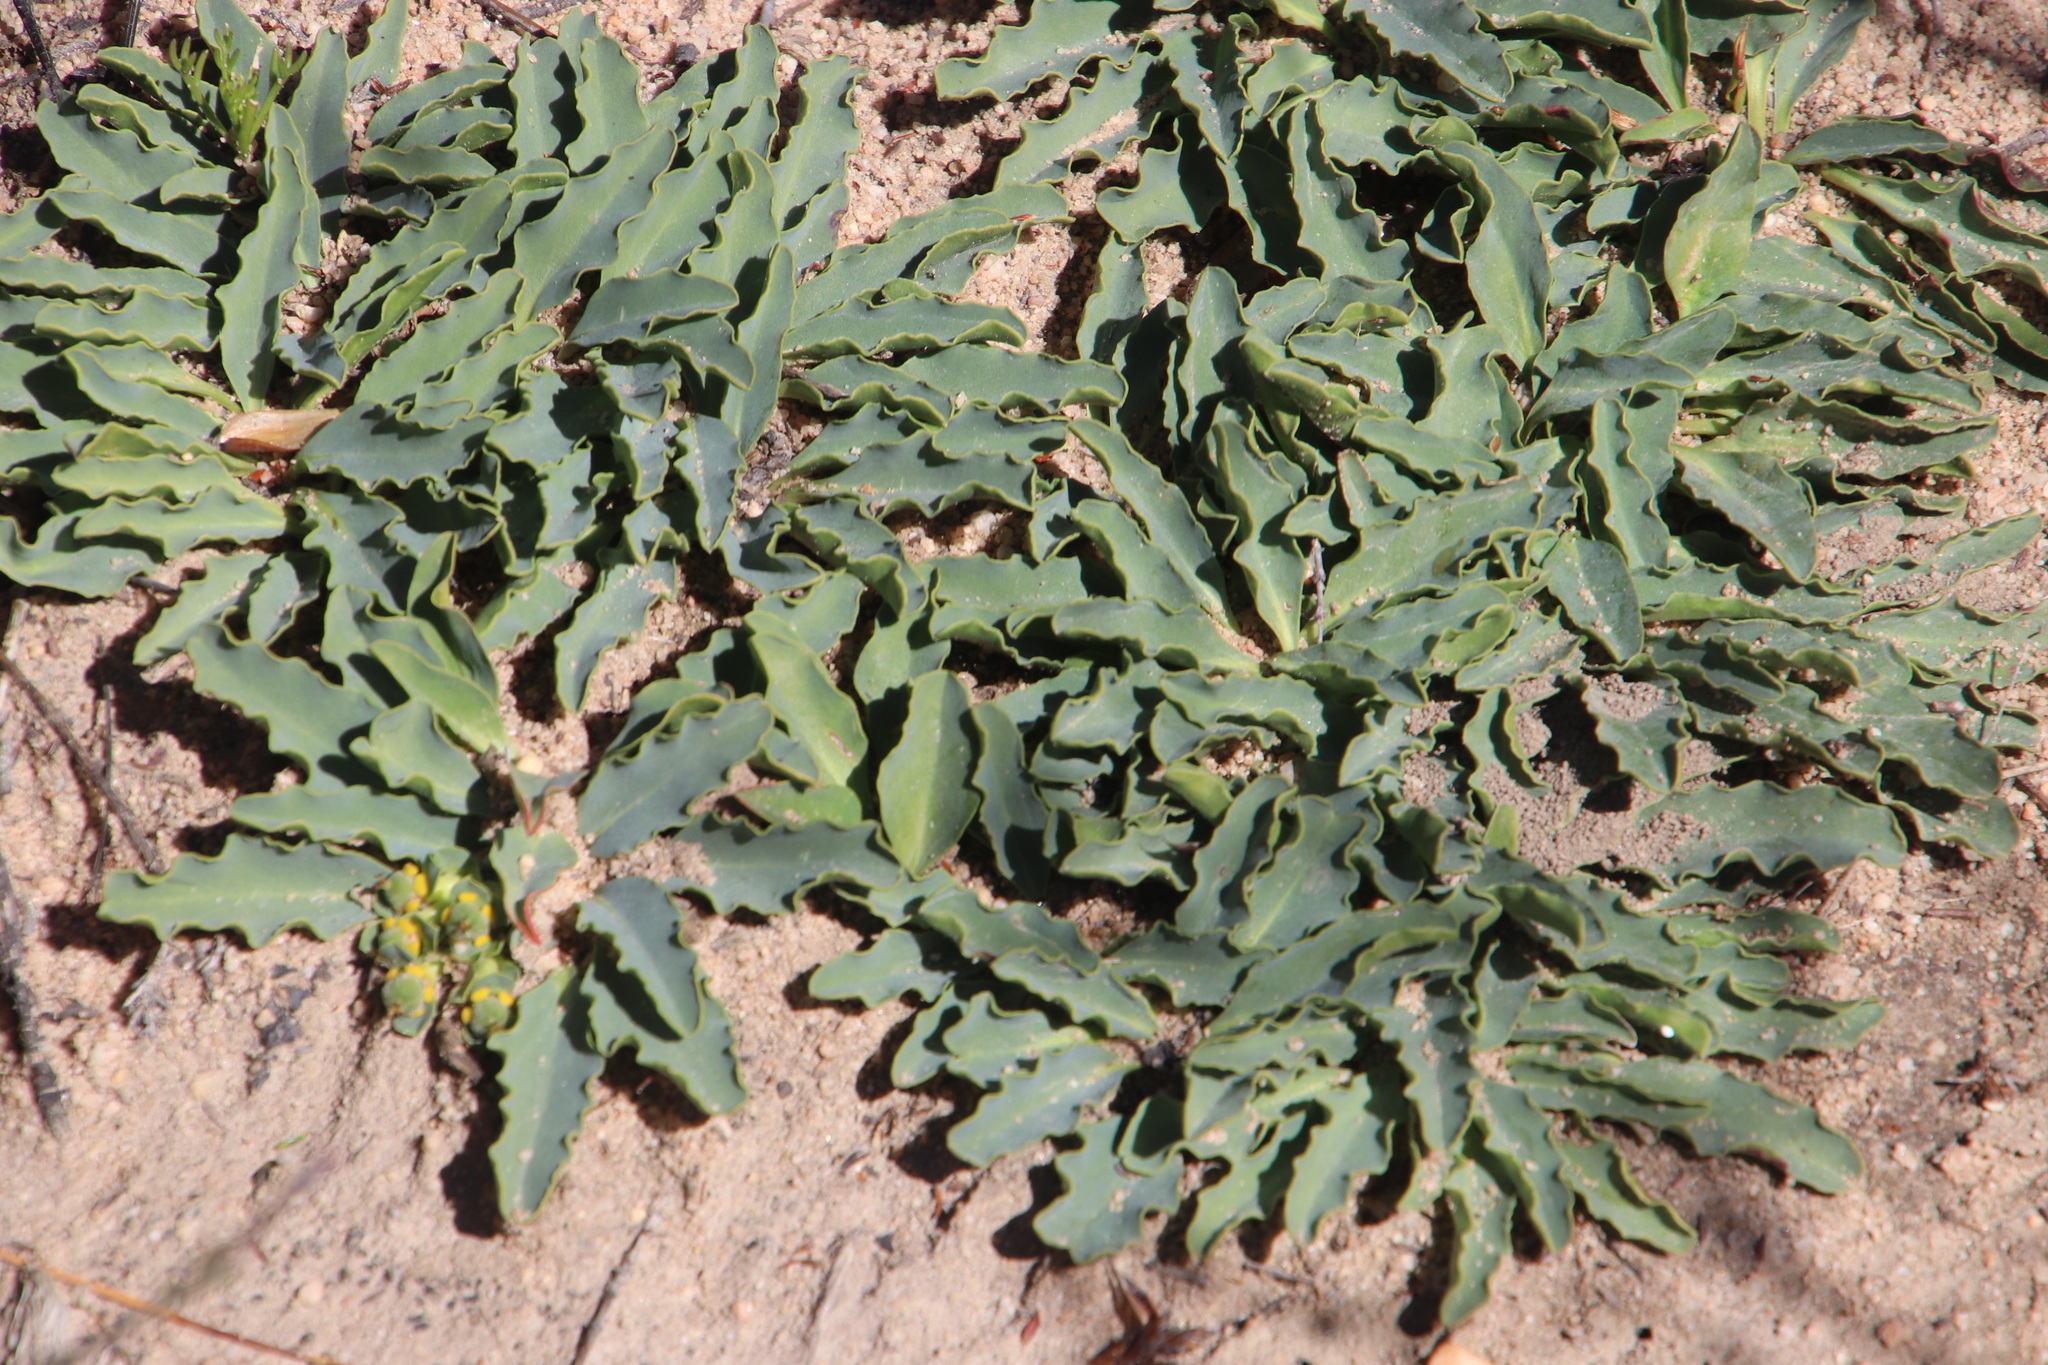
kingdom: Plantae
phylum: Tracheophyta
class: Magnoliopsida
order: Malpighiales
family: Euphorbiaceae
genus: Euphorbia
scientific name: Euphorbia tuberosa
